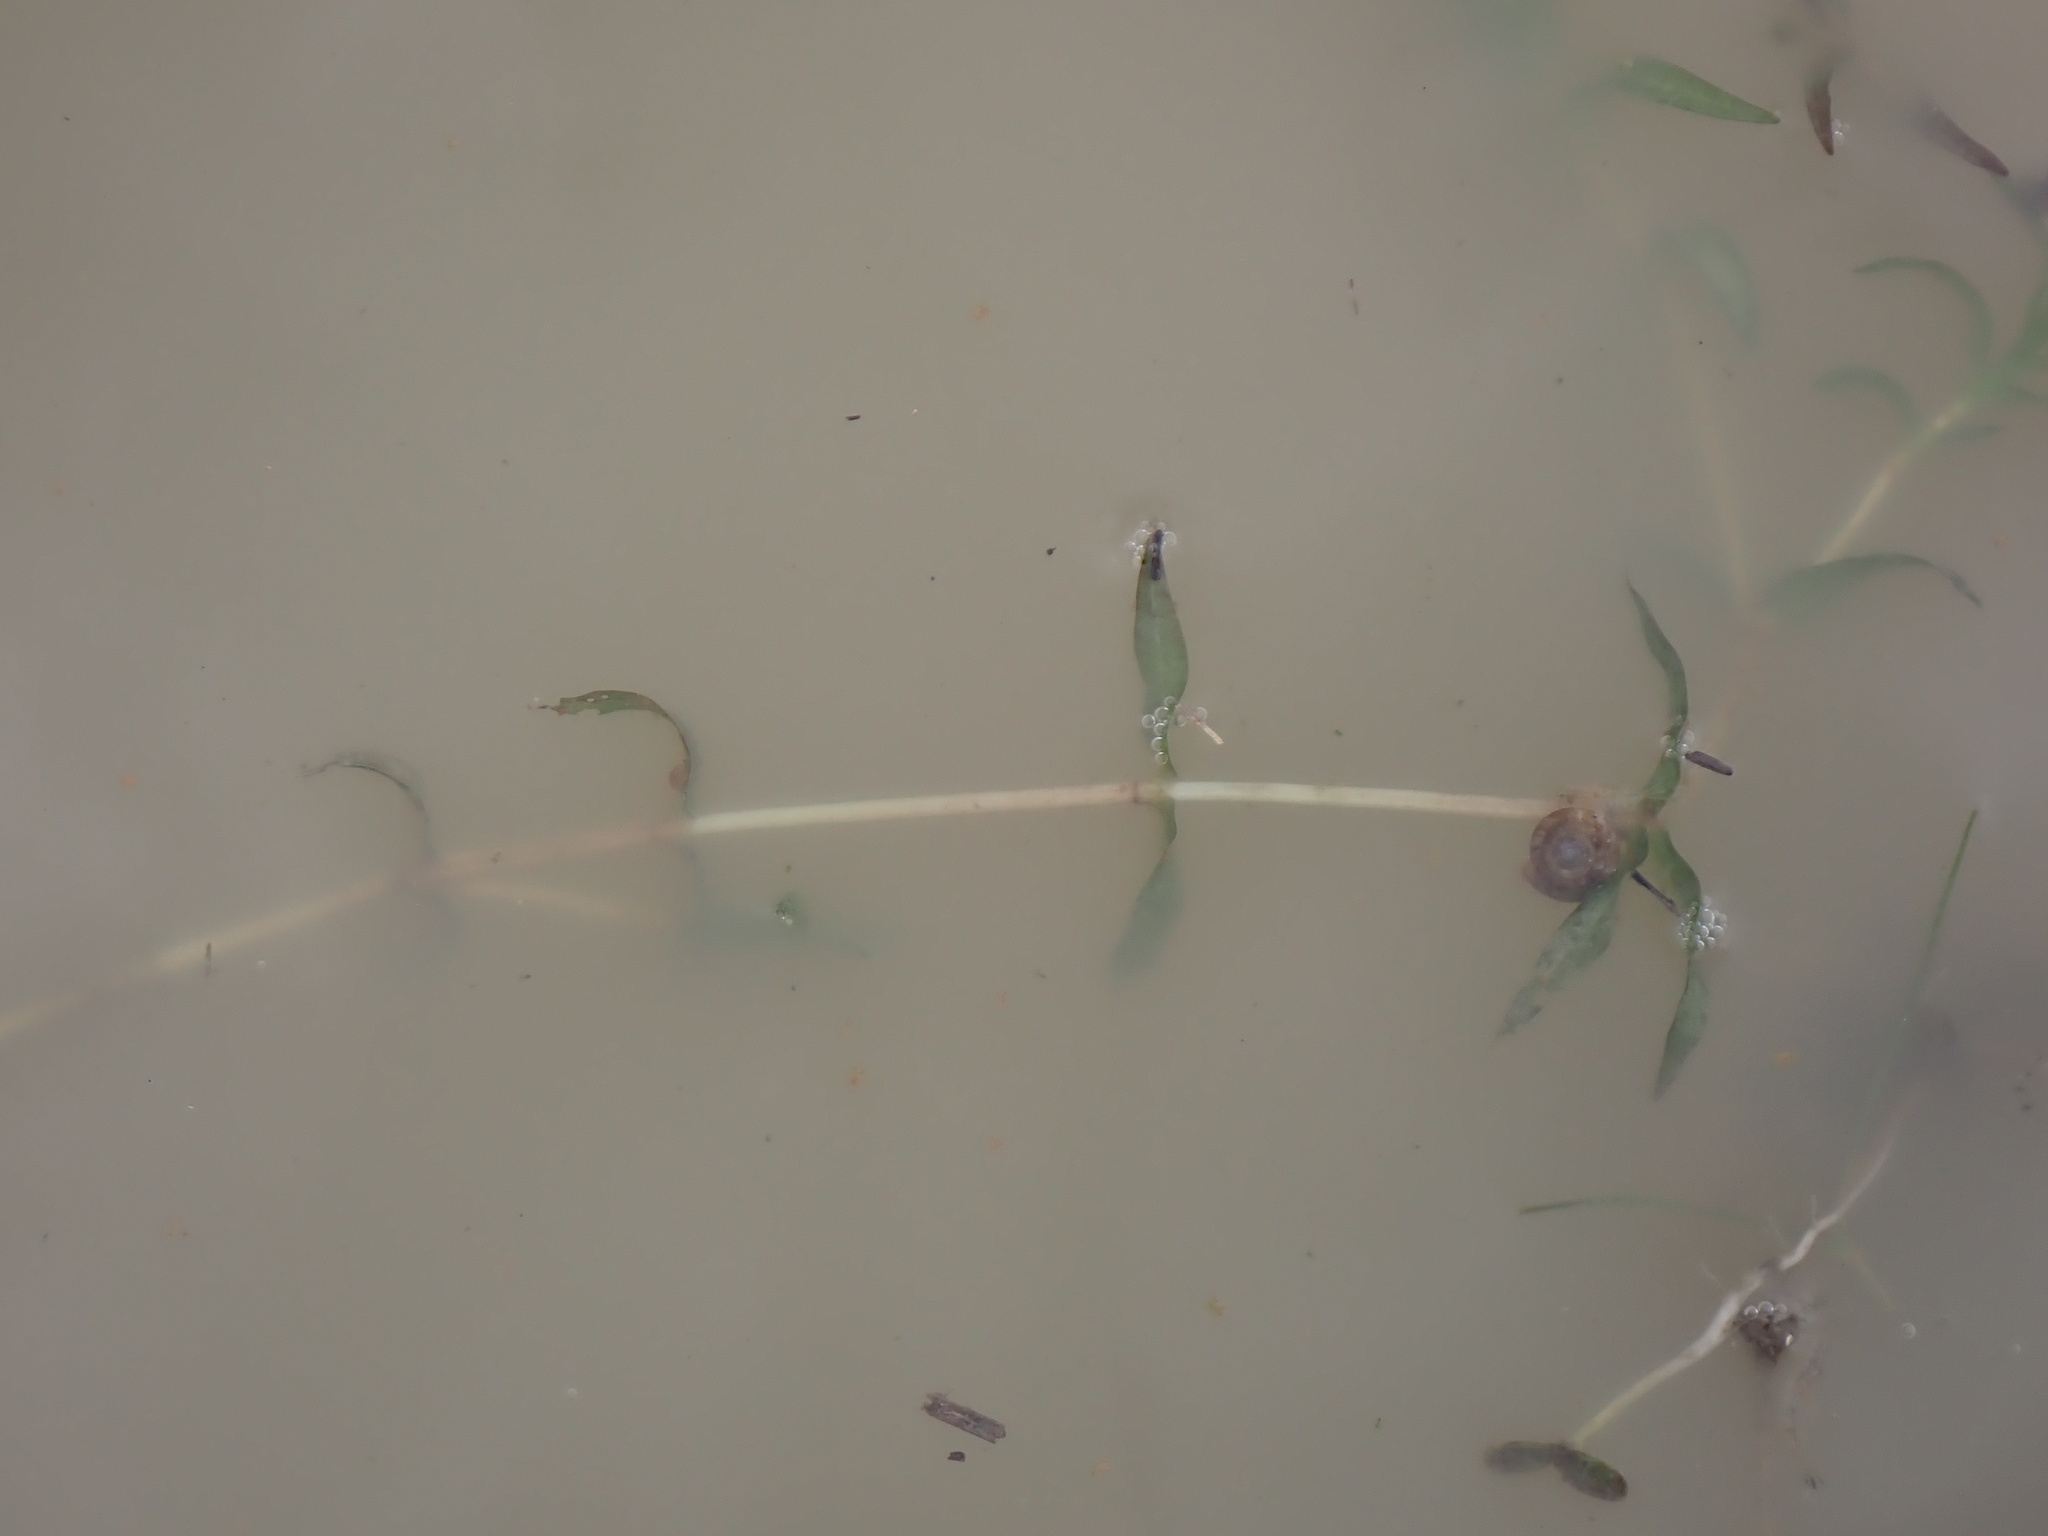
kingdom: Plantae
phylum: Tracheophyta
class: Liliopsida
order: Alismatales
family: Potamogetonaceae
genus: Groenlandia
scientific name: Groenlandia densa
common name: Opposite-leaved pondweed
